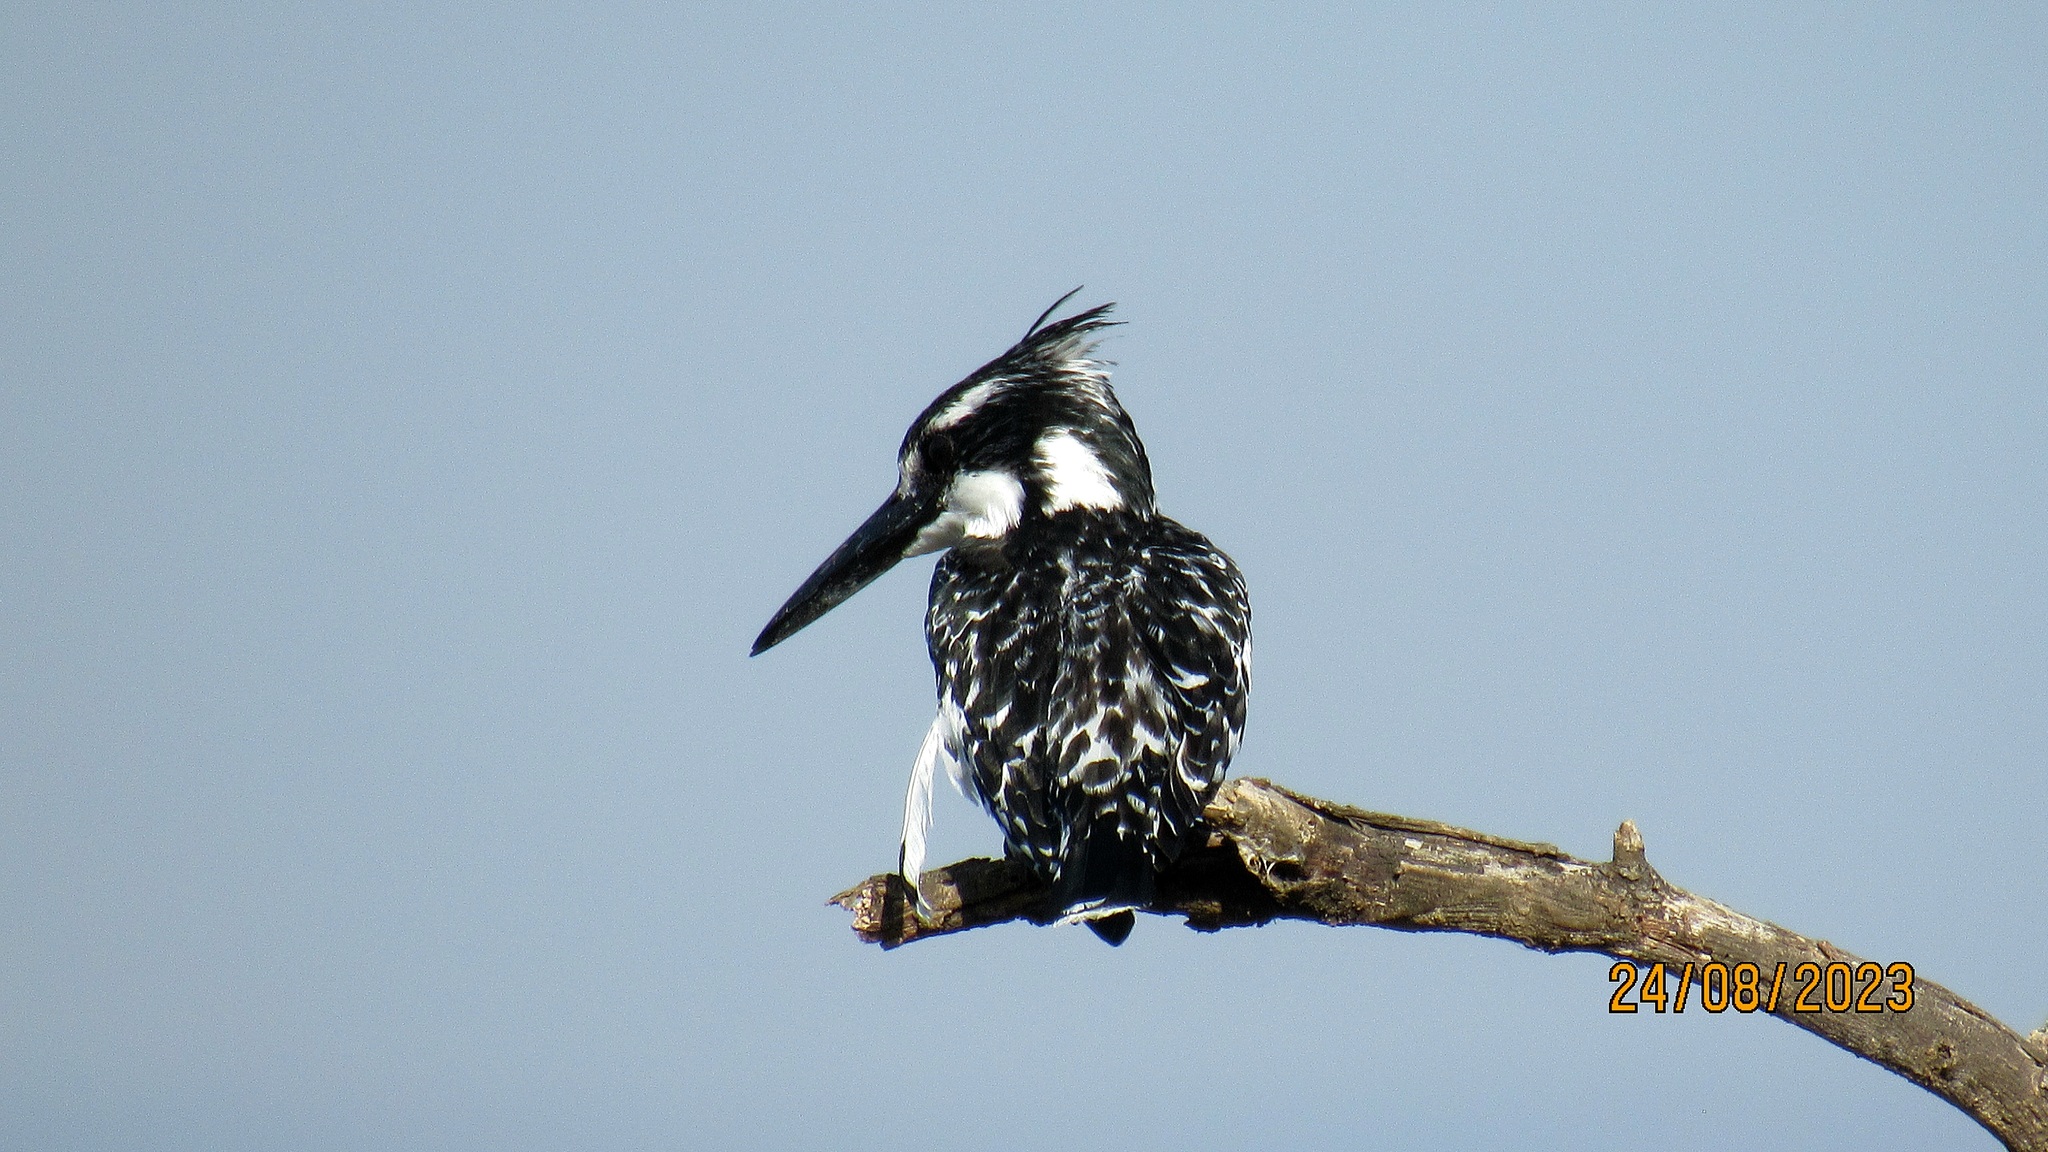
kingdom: Animalia
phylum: Chordata
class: Aves
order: Coraciiformes
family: Alcedinidae
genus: Ceryle
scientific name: Ceryle rudis
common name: Pied kingfisher
